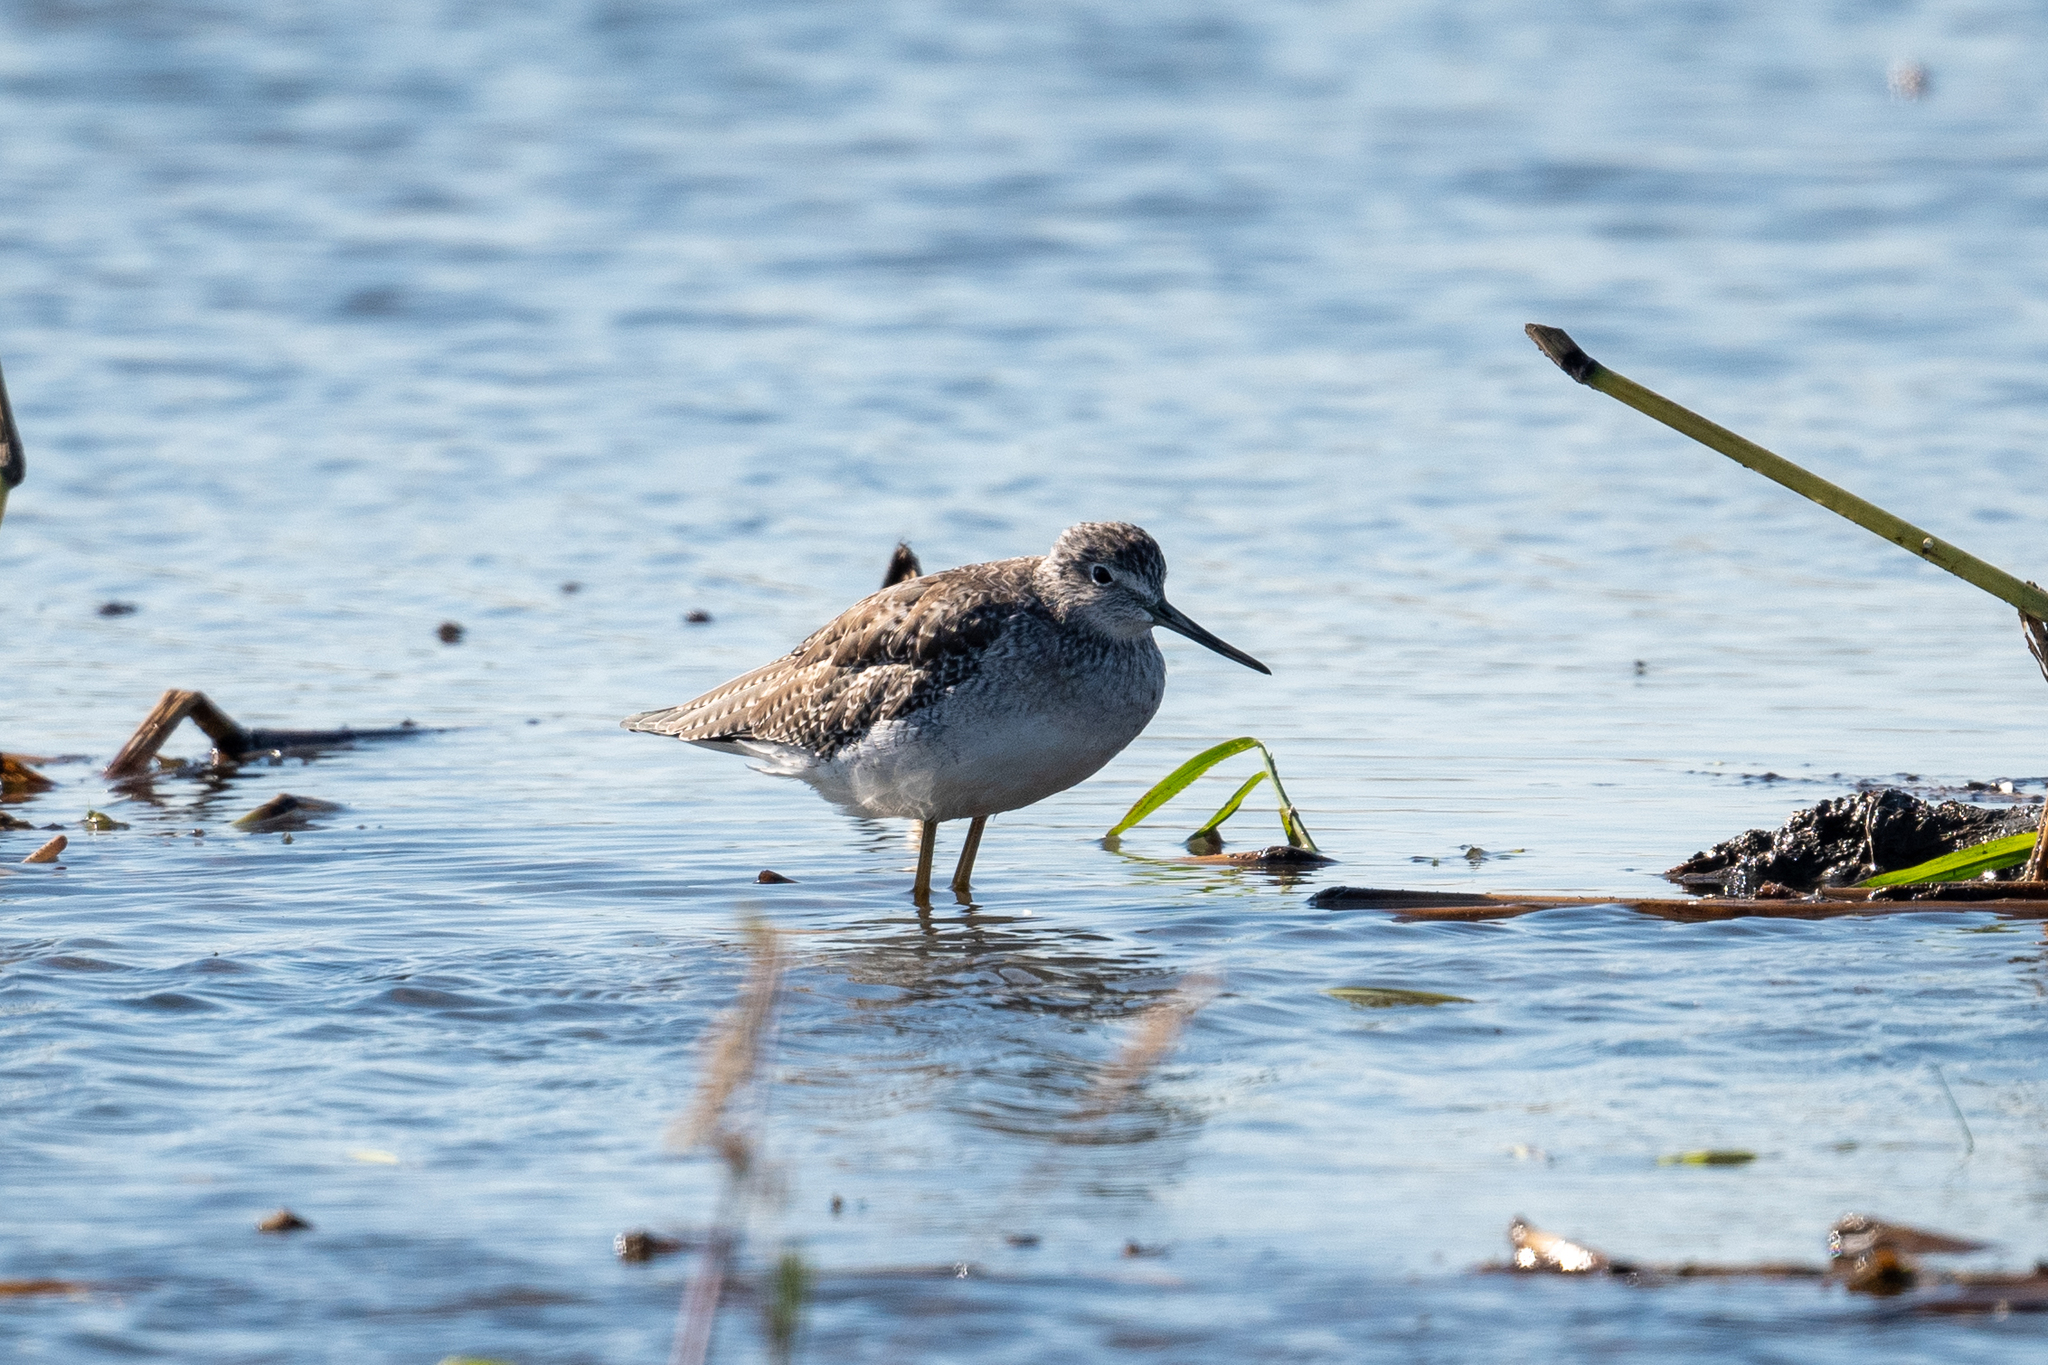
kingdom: Animalia
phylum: Chordata
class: Aves
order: Charadriiformes
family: Scolopacidae
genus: Tringa
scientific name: Tringa melanoleuca
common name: Greater yellowlegs
